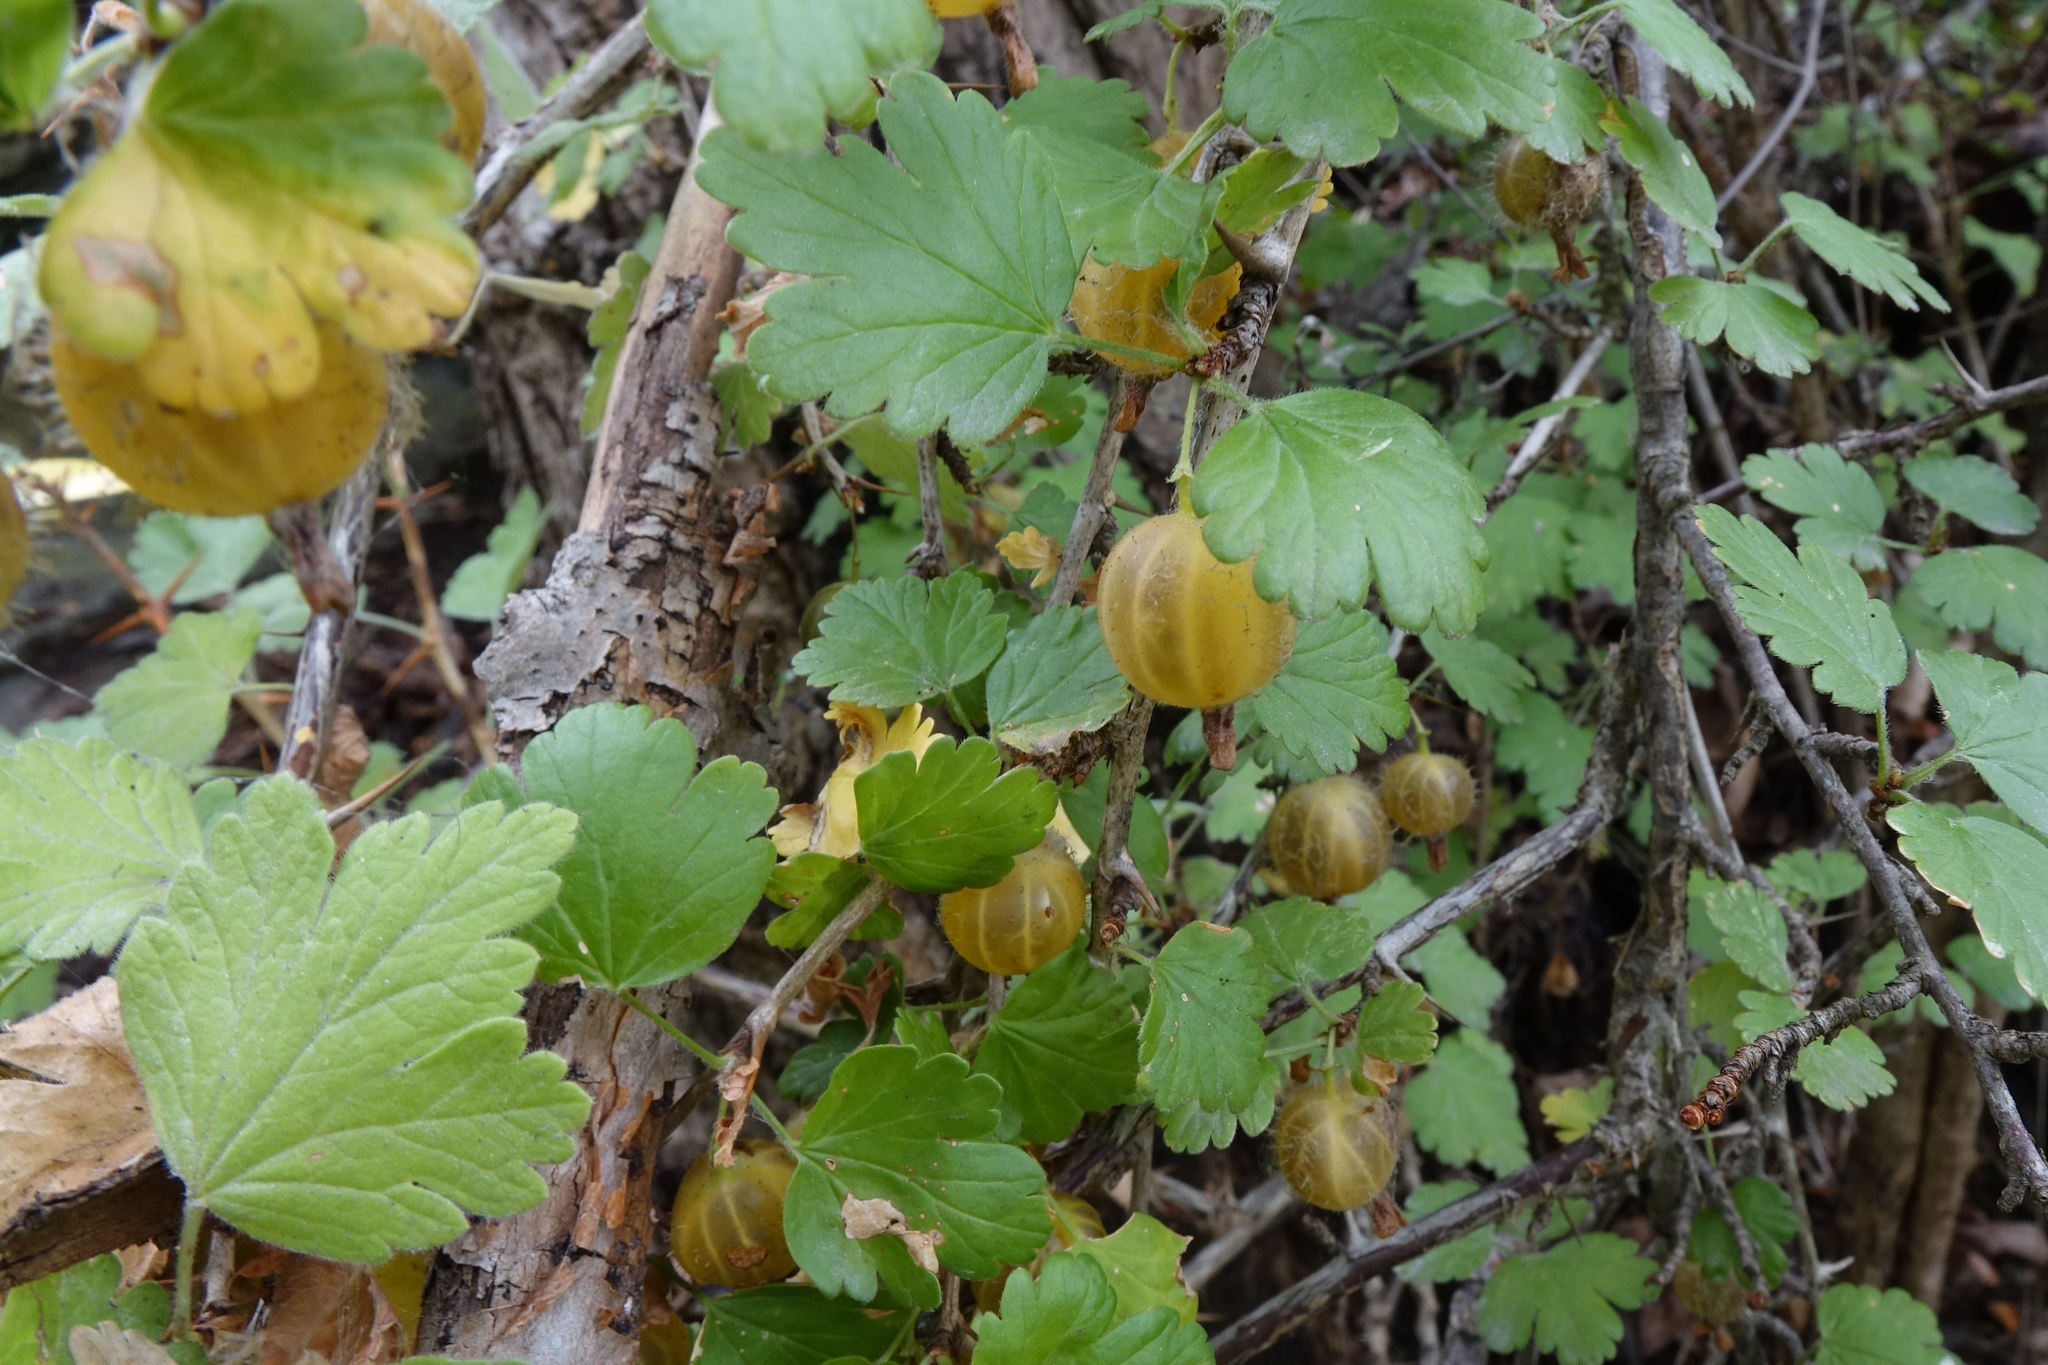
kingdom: Plantae
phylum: Tracheophyta
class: Magnoliopsida
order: Saxifragales
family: Grossulariaceae
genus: Ribes
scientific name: Ribes uva-crispa
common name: Gooseberry
